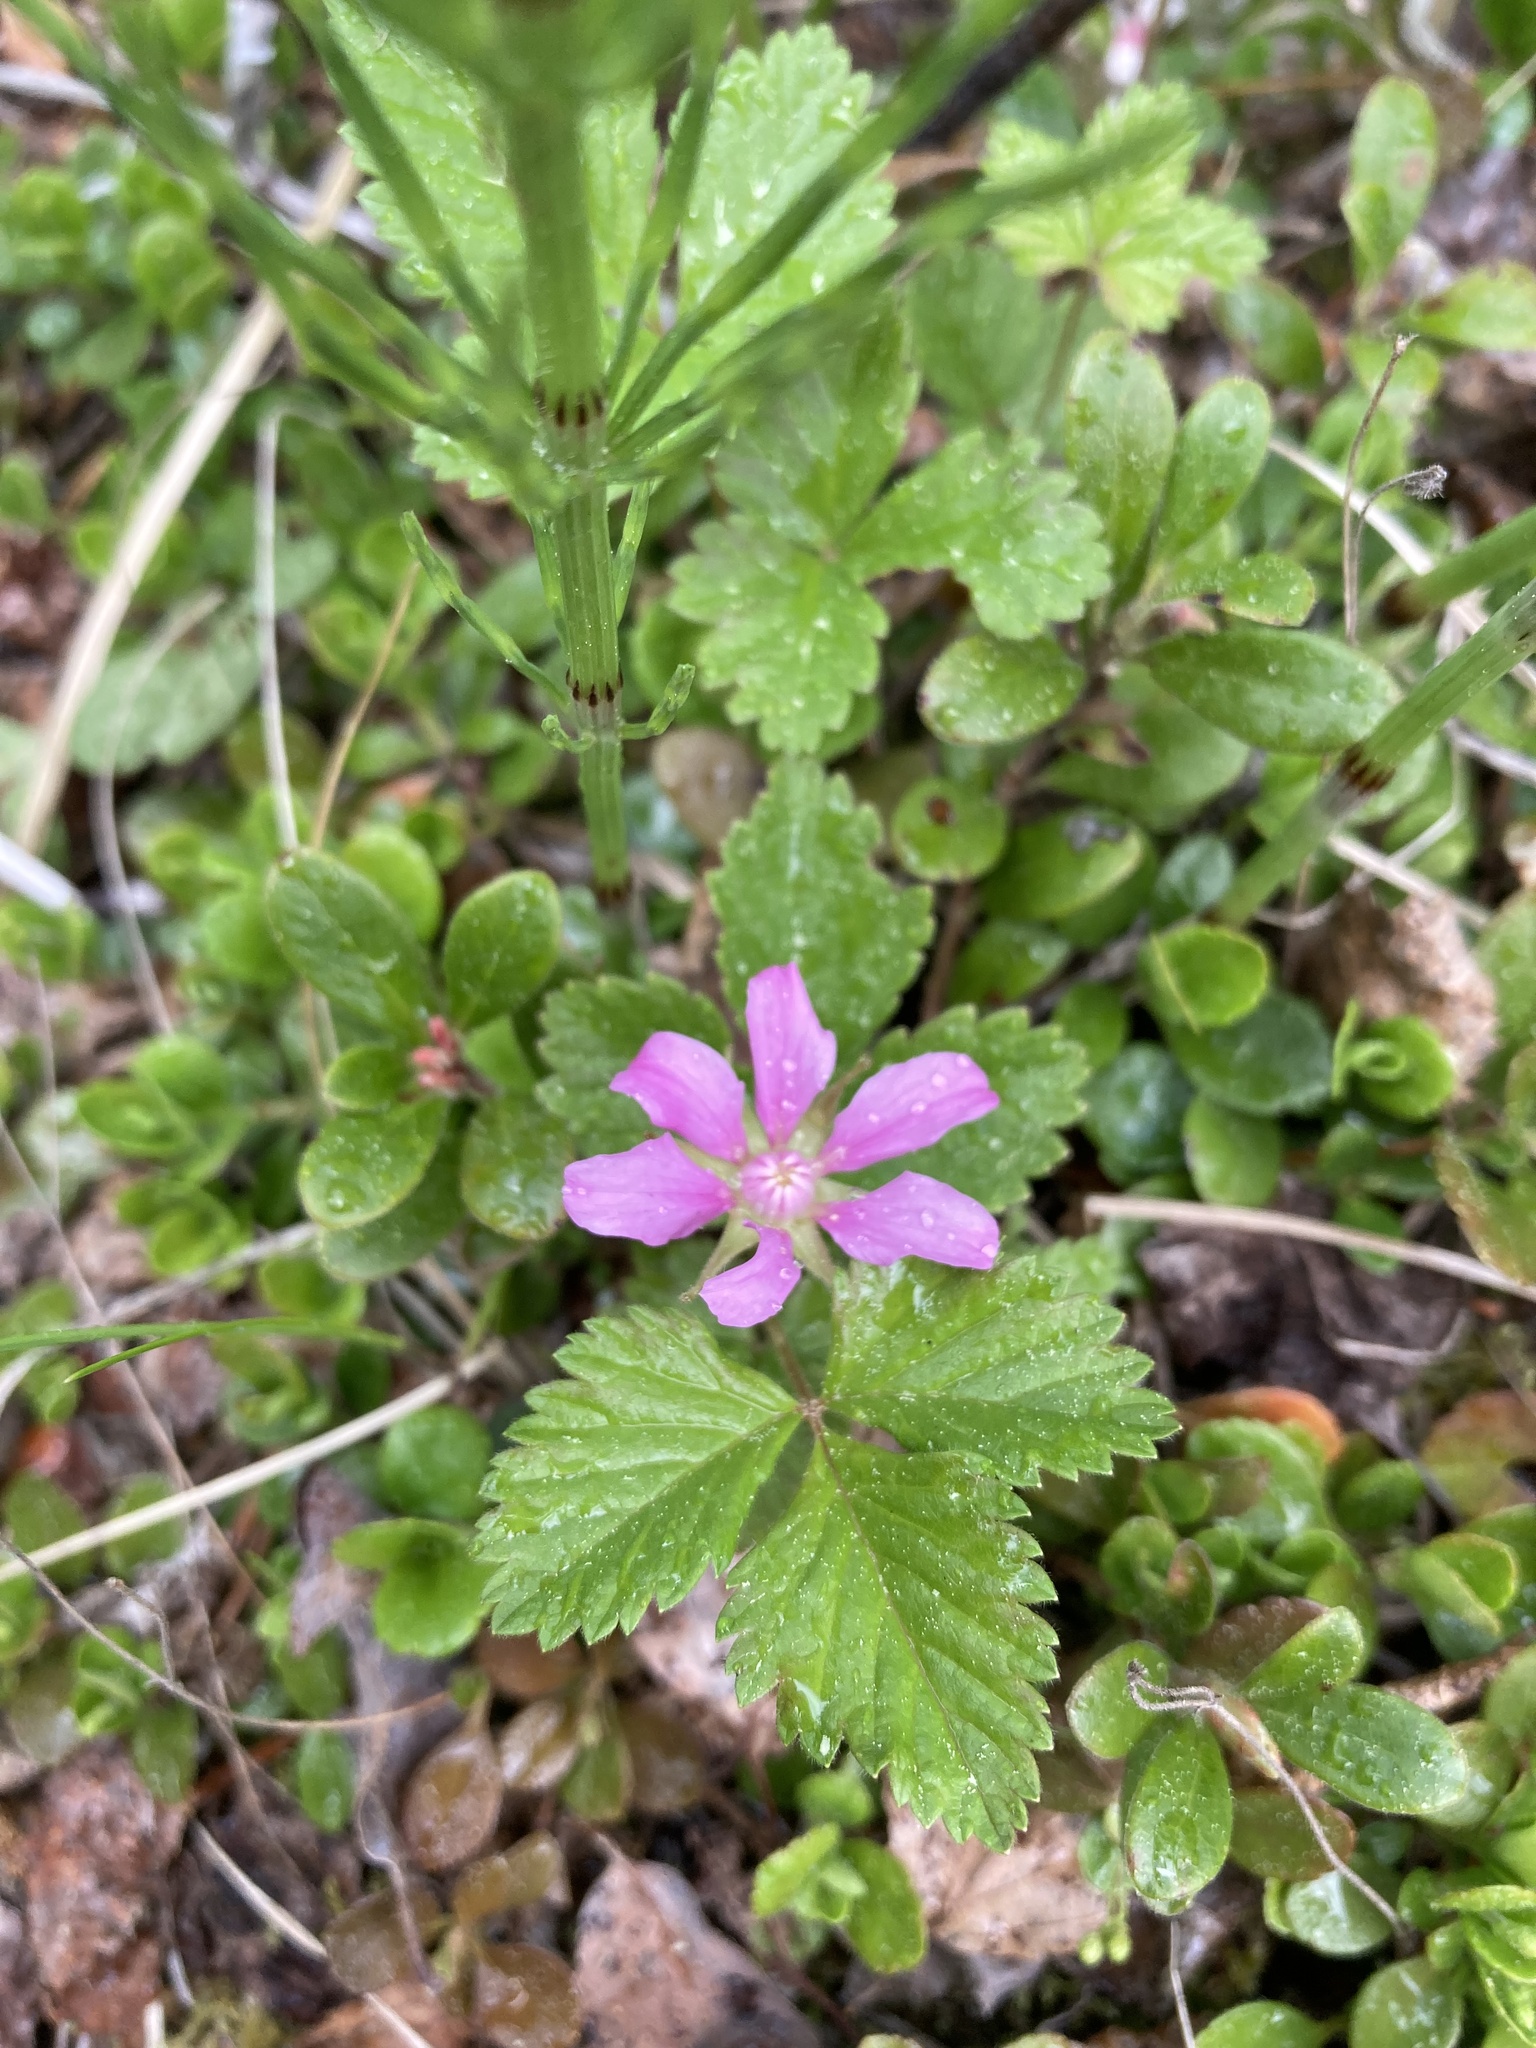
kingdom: Plantae
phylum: Tracheophyta
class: Magnoliopsida
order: Rosales
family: Rosaceae
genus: Rubus
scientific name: Rubus arcticus
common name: Arctic bramble
